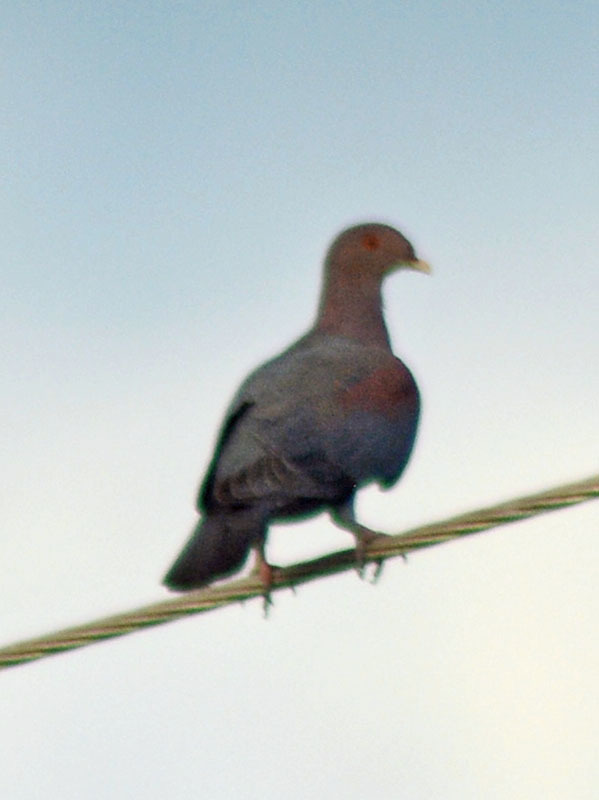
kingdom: Animalia
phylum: Chordata
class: Aves
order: Columbiformes
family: Columbidae
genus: Patagioenas
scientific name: Patagioenas flavirostris
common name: Red-billed pigeon
